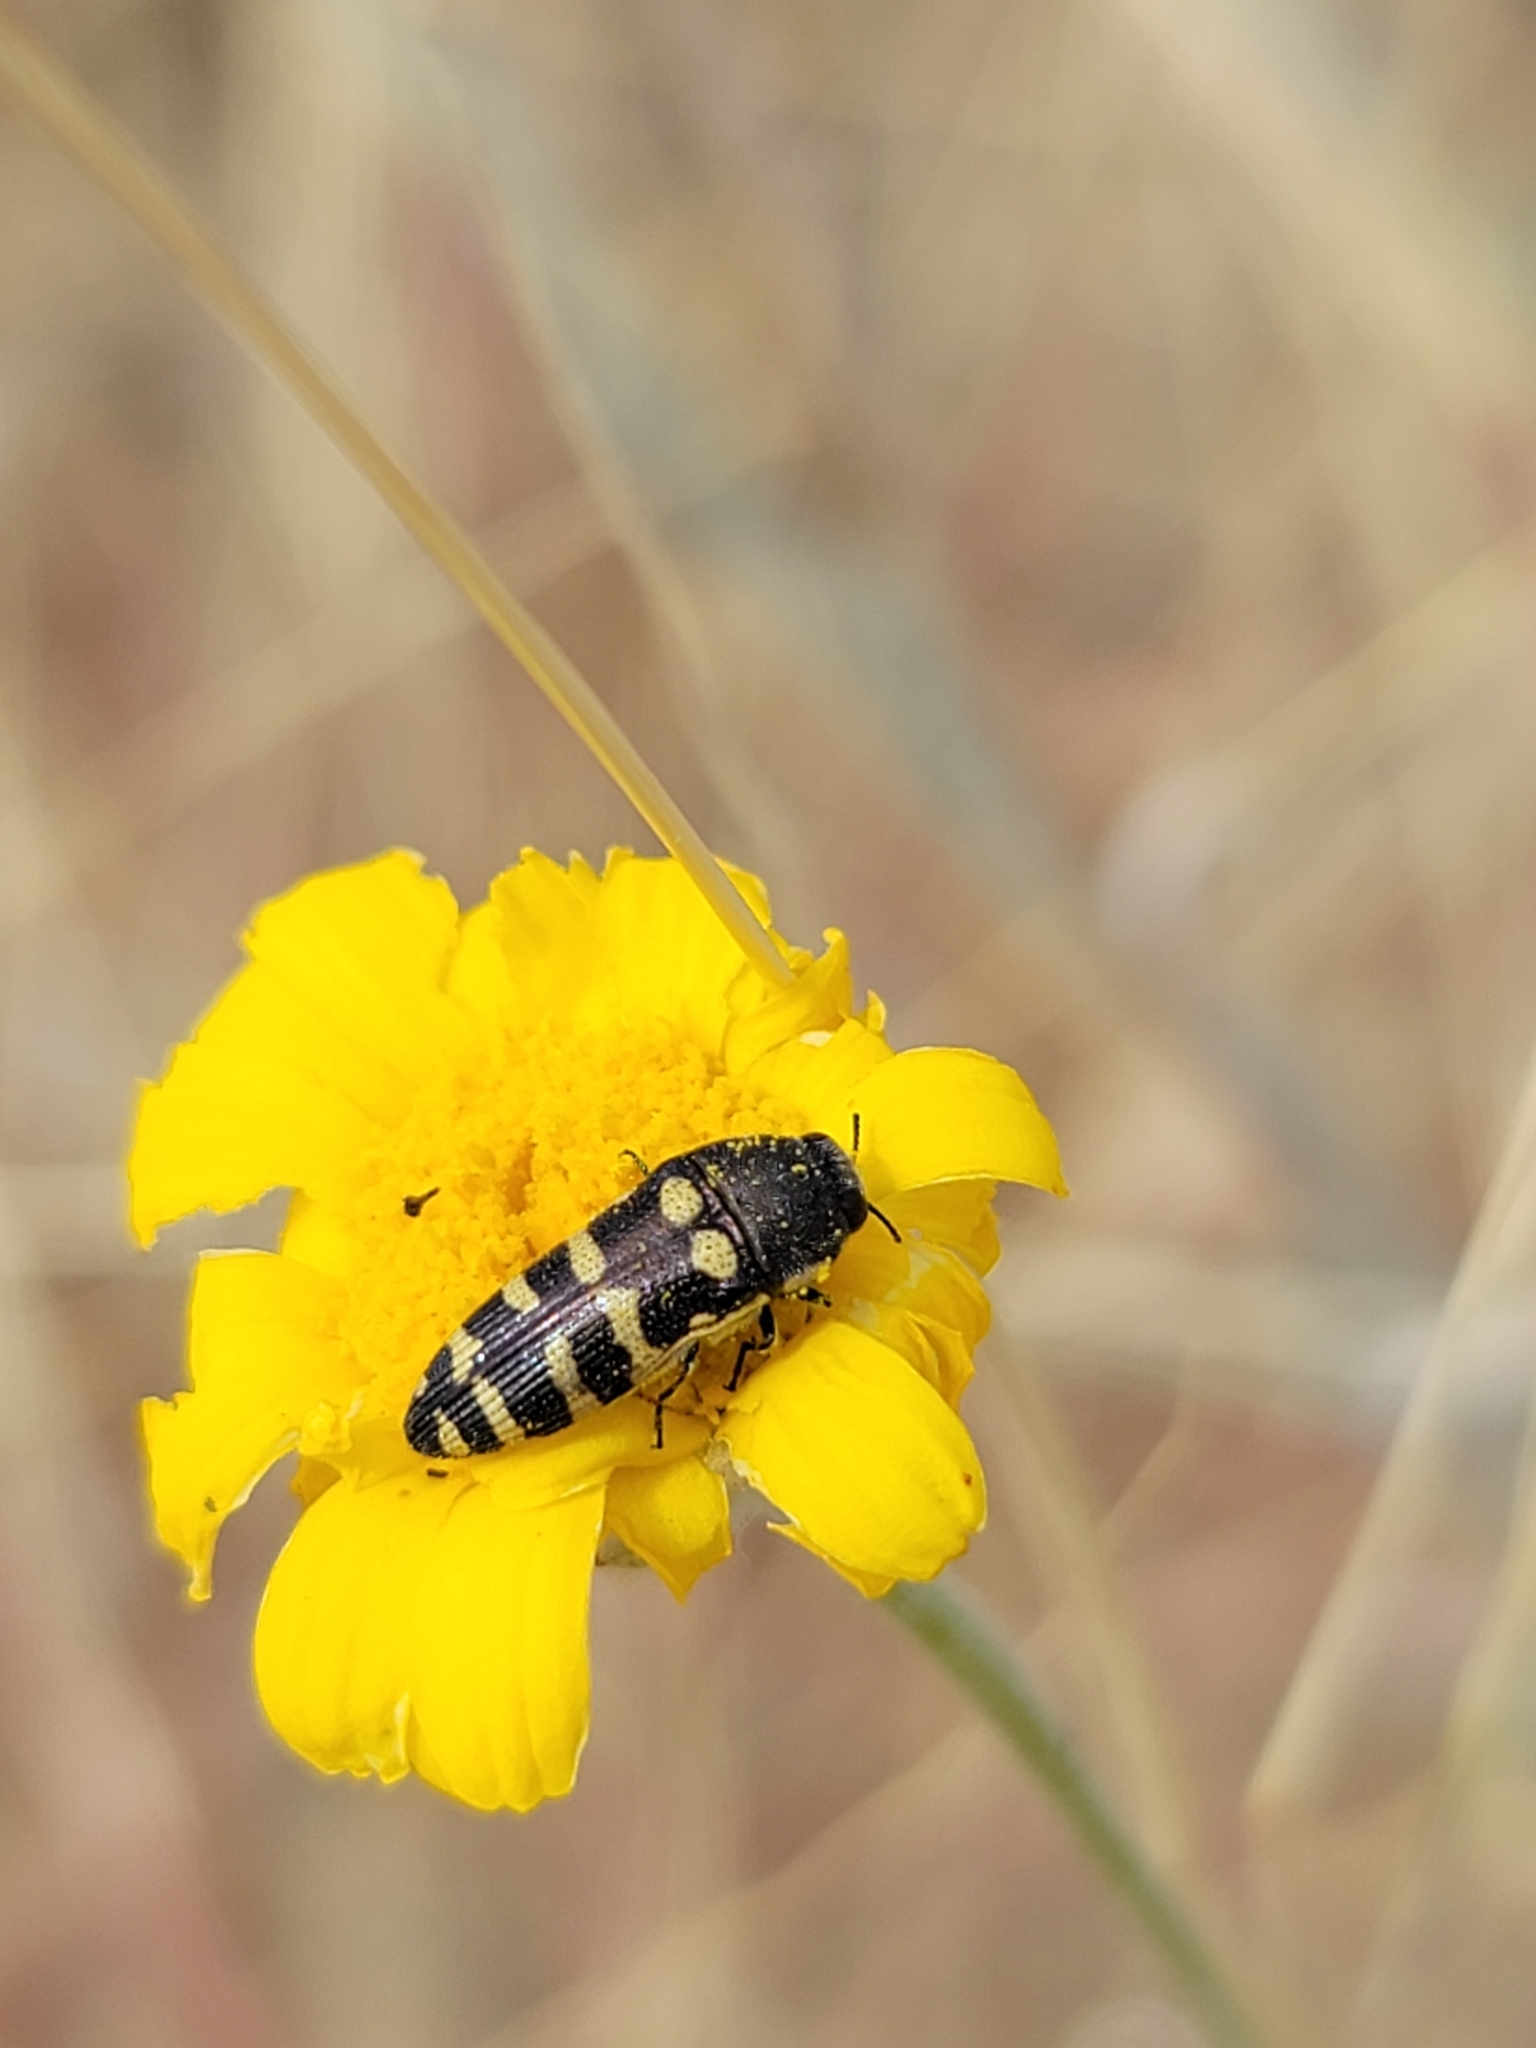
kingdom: Animalia
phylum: Arthropoda
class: Insecta
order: Coleoptera
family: Buprestidae
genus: Acmaeodera
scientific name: Acmaeodera alicia
